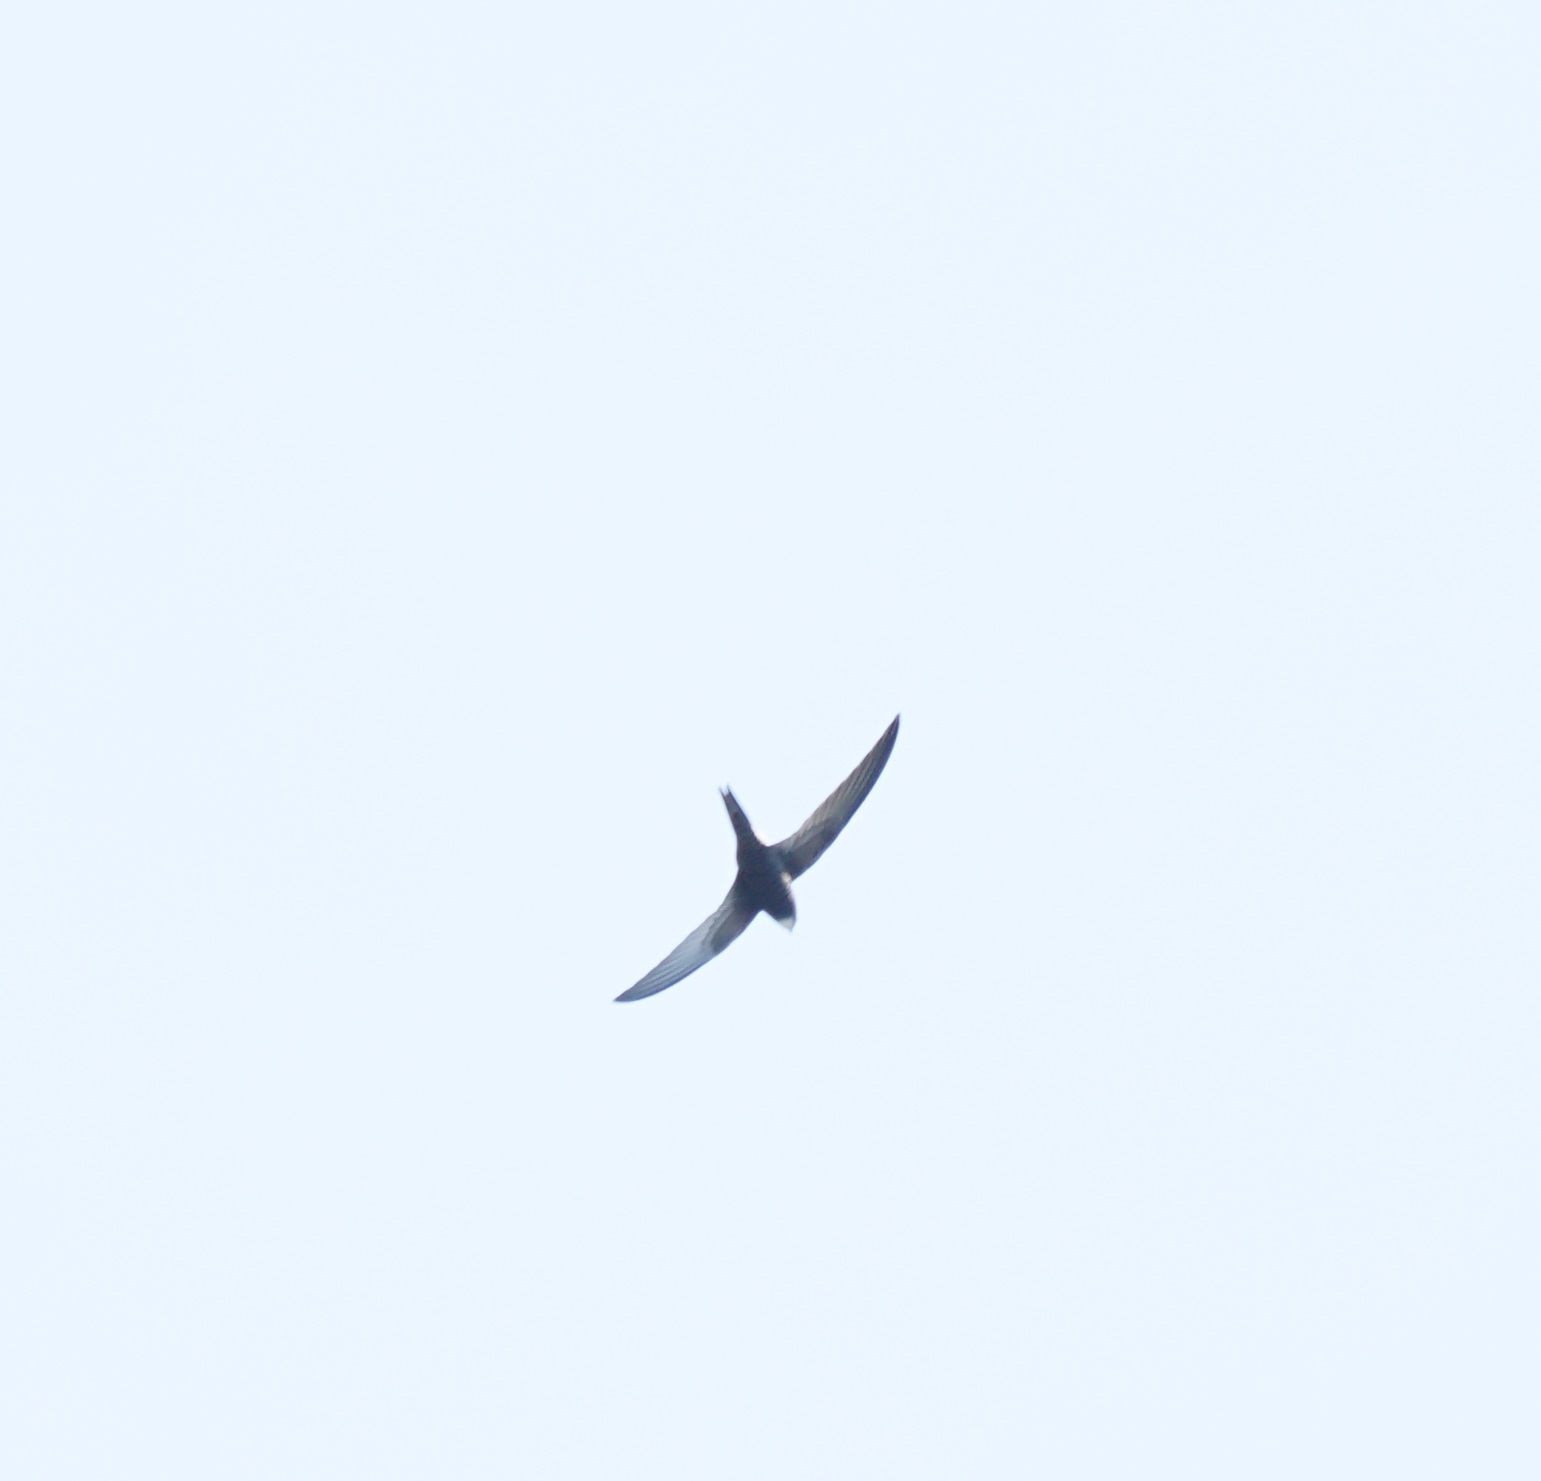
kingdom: Animalia
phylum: Chordata
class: Aves
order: Apodiformes
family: Apodidae
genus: Apus
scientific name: Apus apus
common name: Common swift
